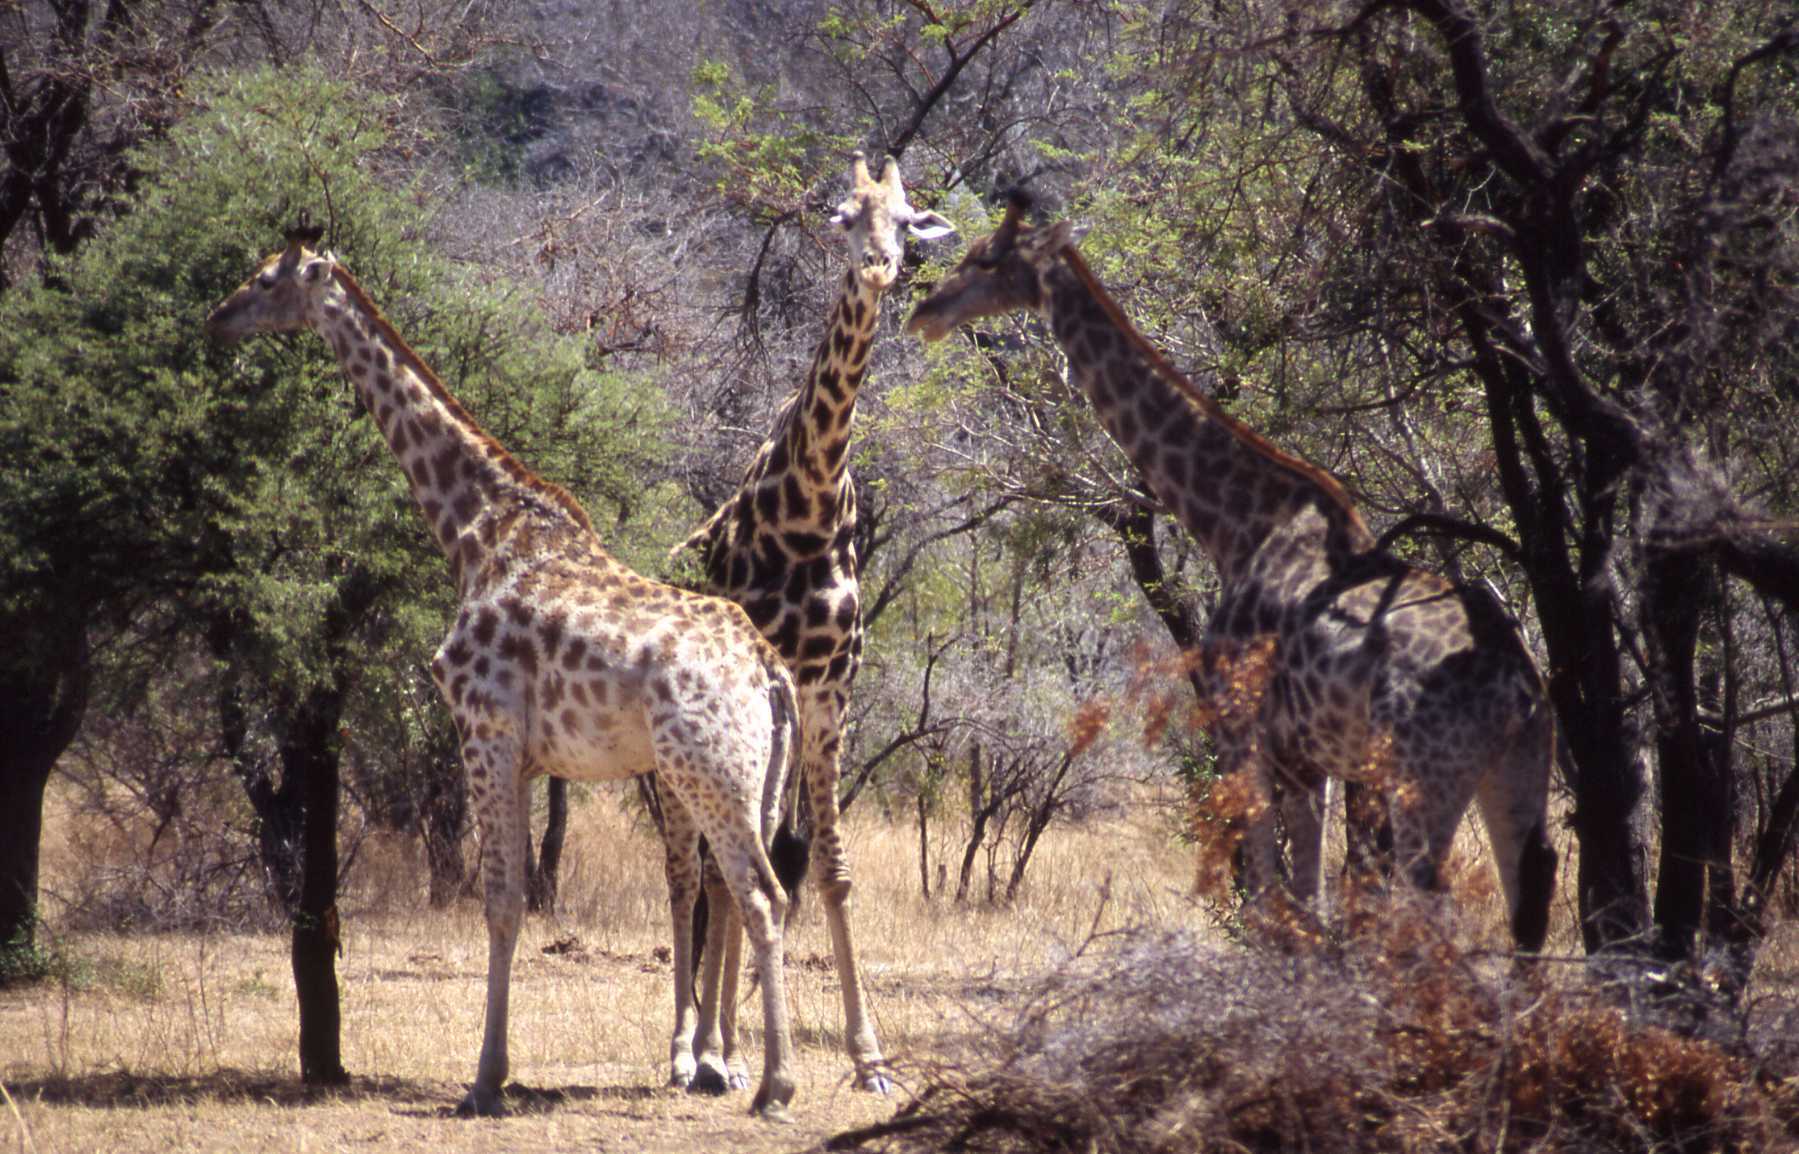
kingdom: Animalia
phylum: Chordata
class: Mammalia
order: Artiodactyla
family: Giraffidae
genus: Giraffa
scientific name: Giraffa giraffa
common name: Southern giraffe
